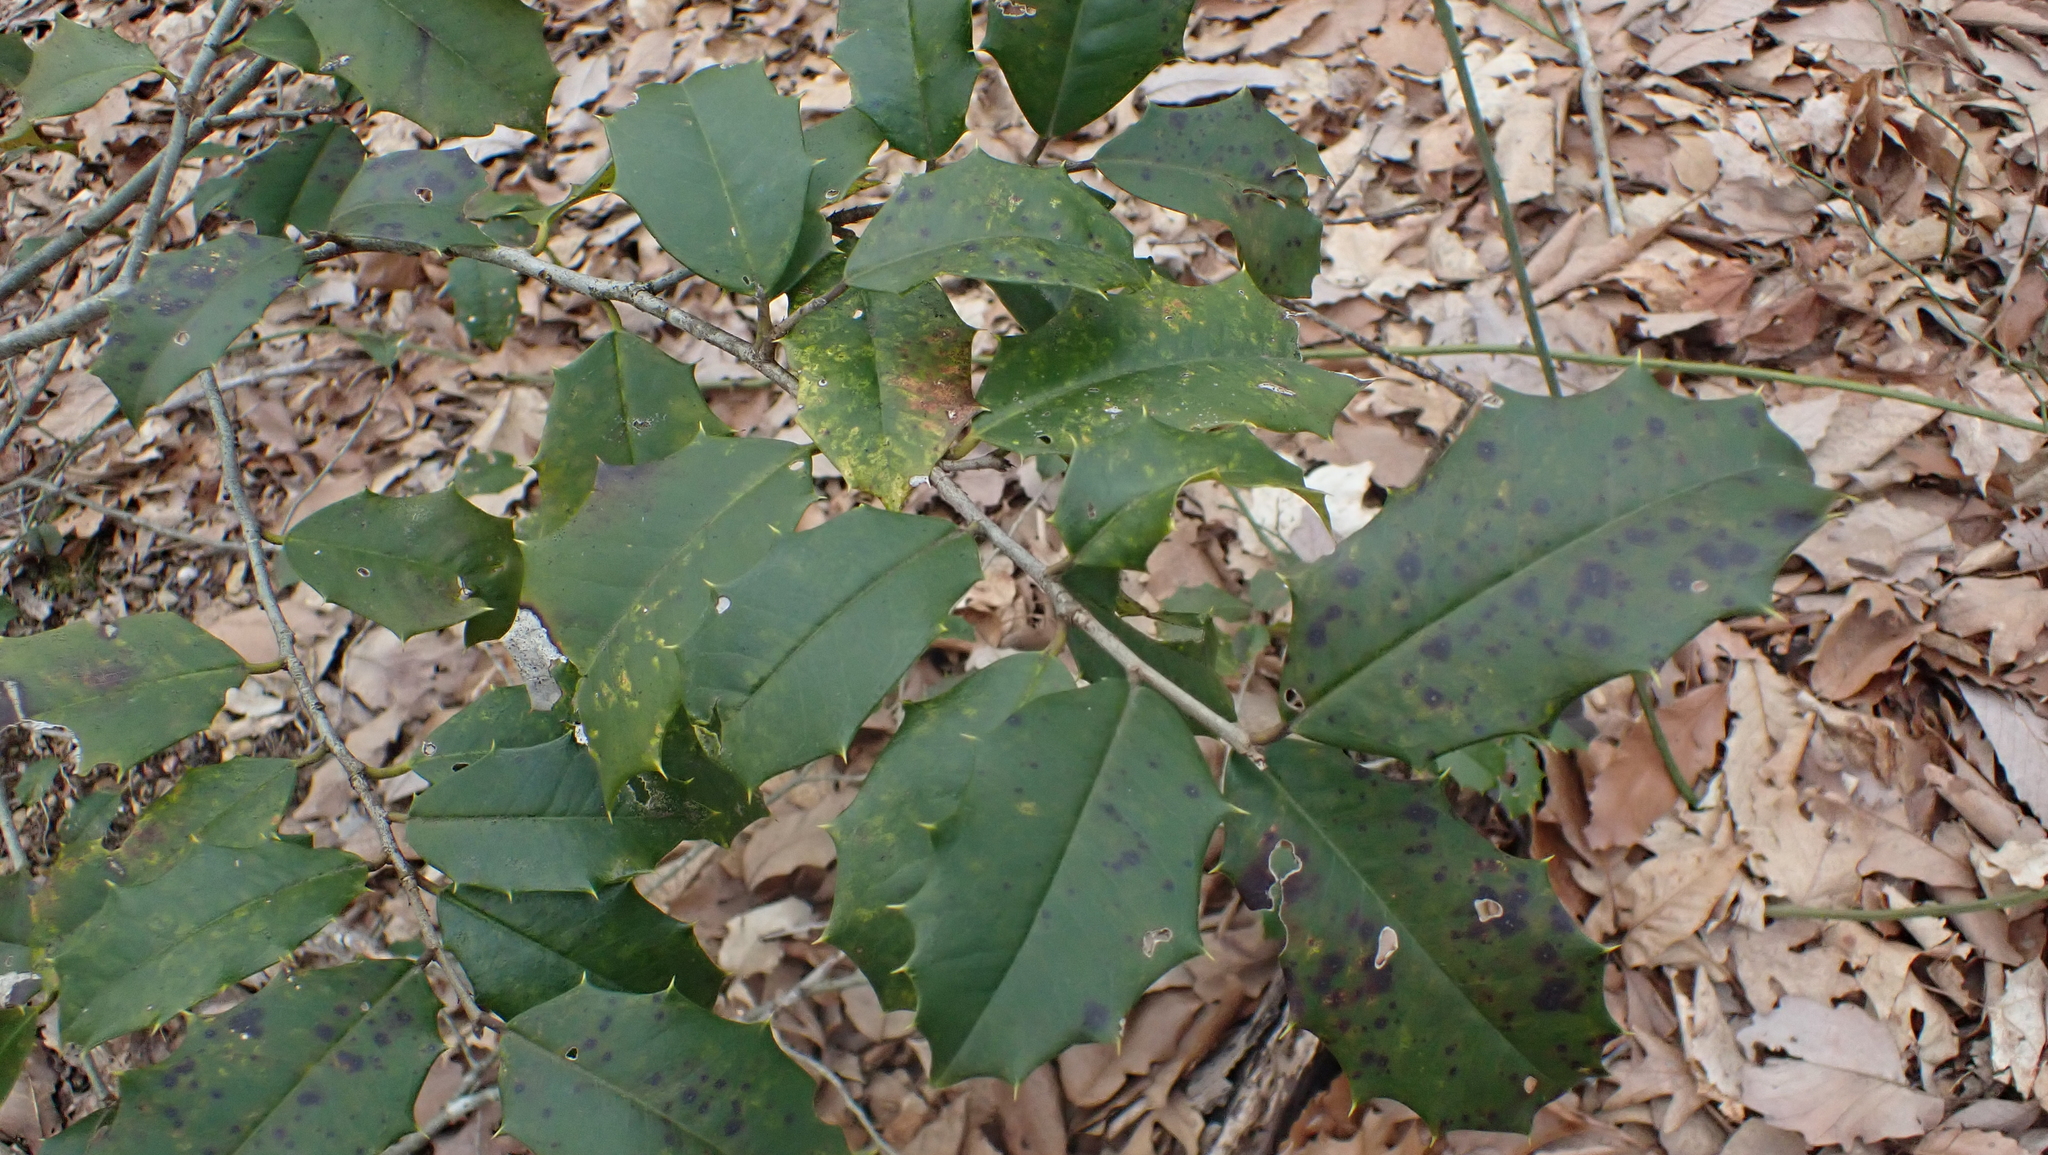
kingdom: Plantae
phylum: Tracheophyta
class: Magnoliopsida
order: Aquifoliales
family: Aquifoliaceae
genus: Ilex
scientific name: Ilex opaca
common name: American holly
